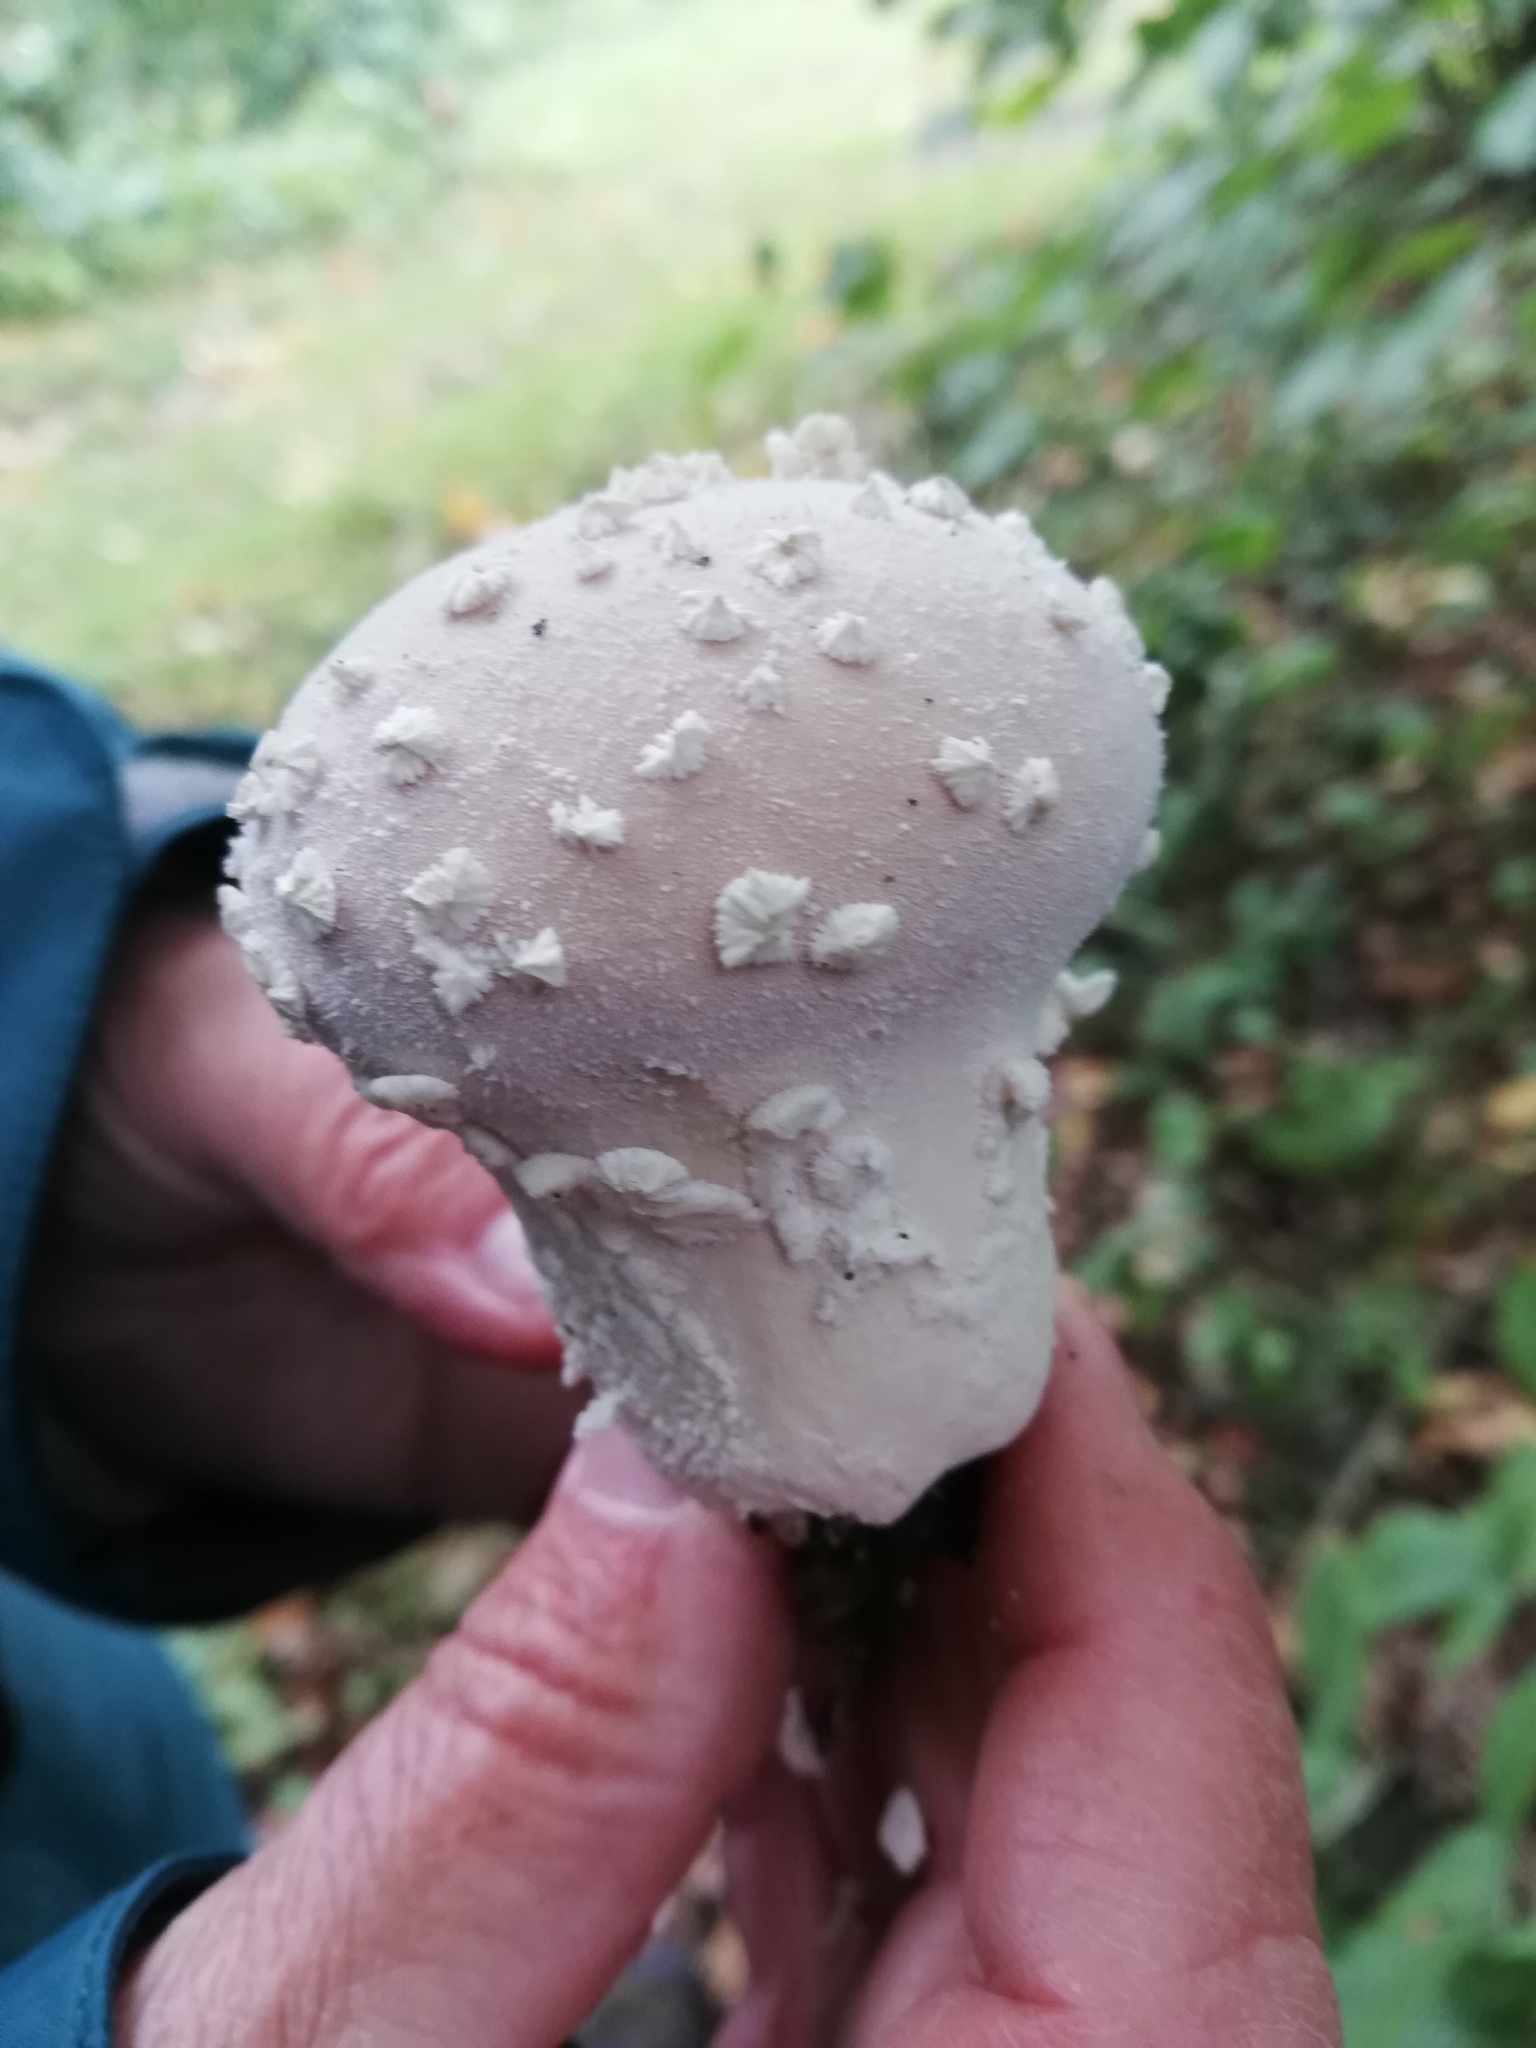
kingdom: Fungi
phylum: Basidiomycota
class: Agaricomycetes
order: Agaricales
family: Lycoperdaceae
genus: Lycoperdon
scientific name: Lycoperdon mammiforme
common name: Flaky puffball
